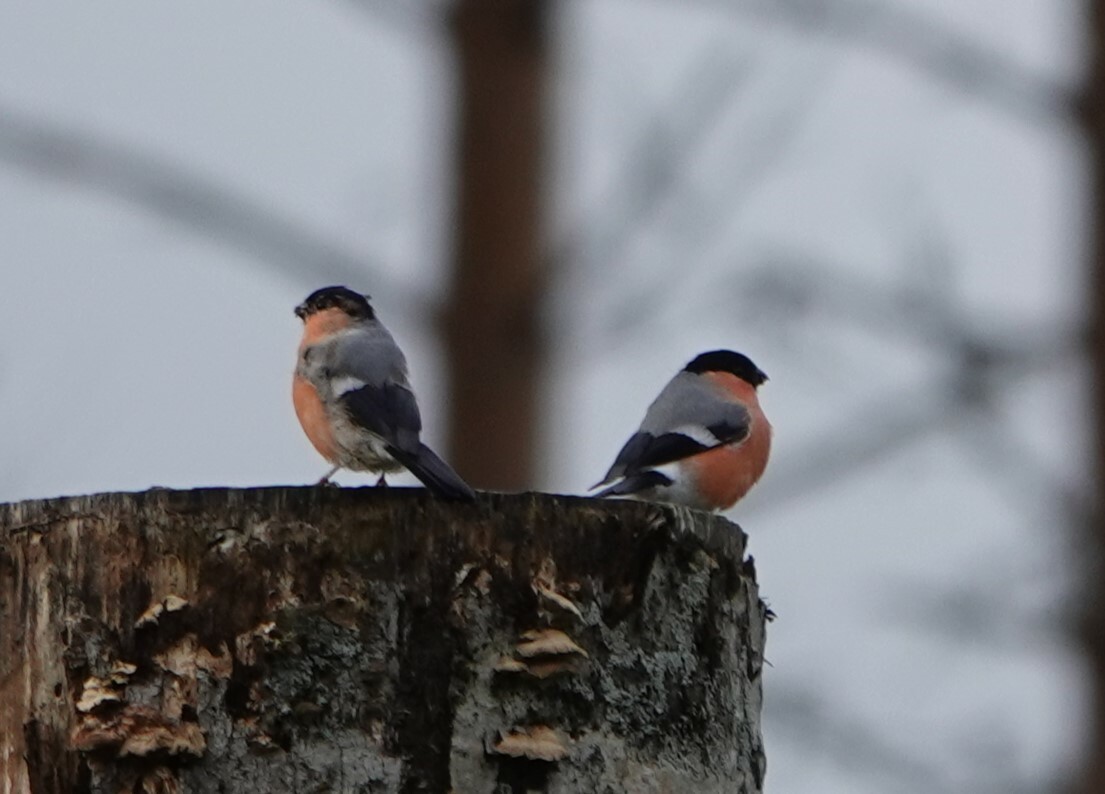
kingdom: Animalia
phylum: Chordata
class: Aves
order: Passeriformes
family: Fringillidae
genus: Pyrrhula
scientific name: Pyrrhula pyrrhula
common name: Eurasian bullfinch
